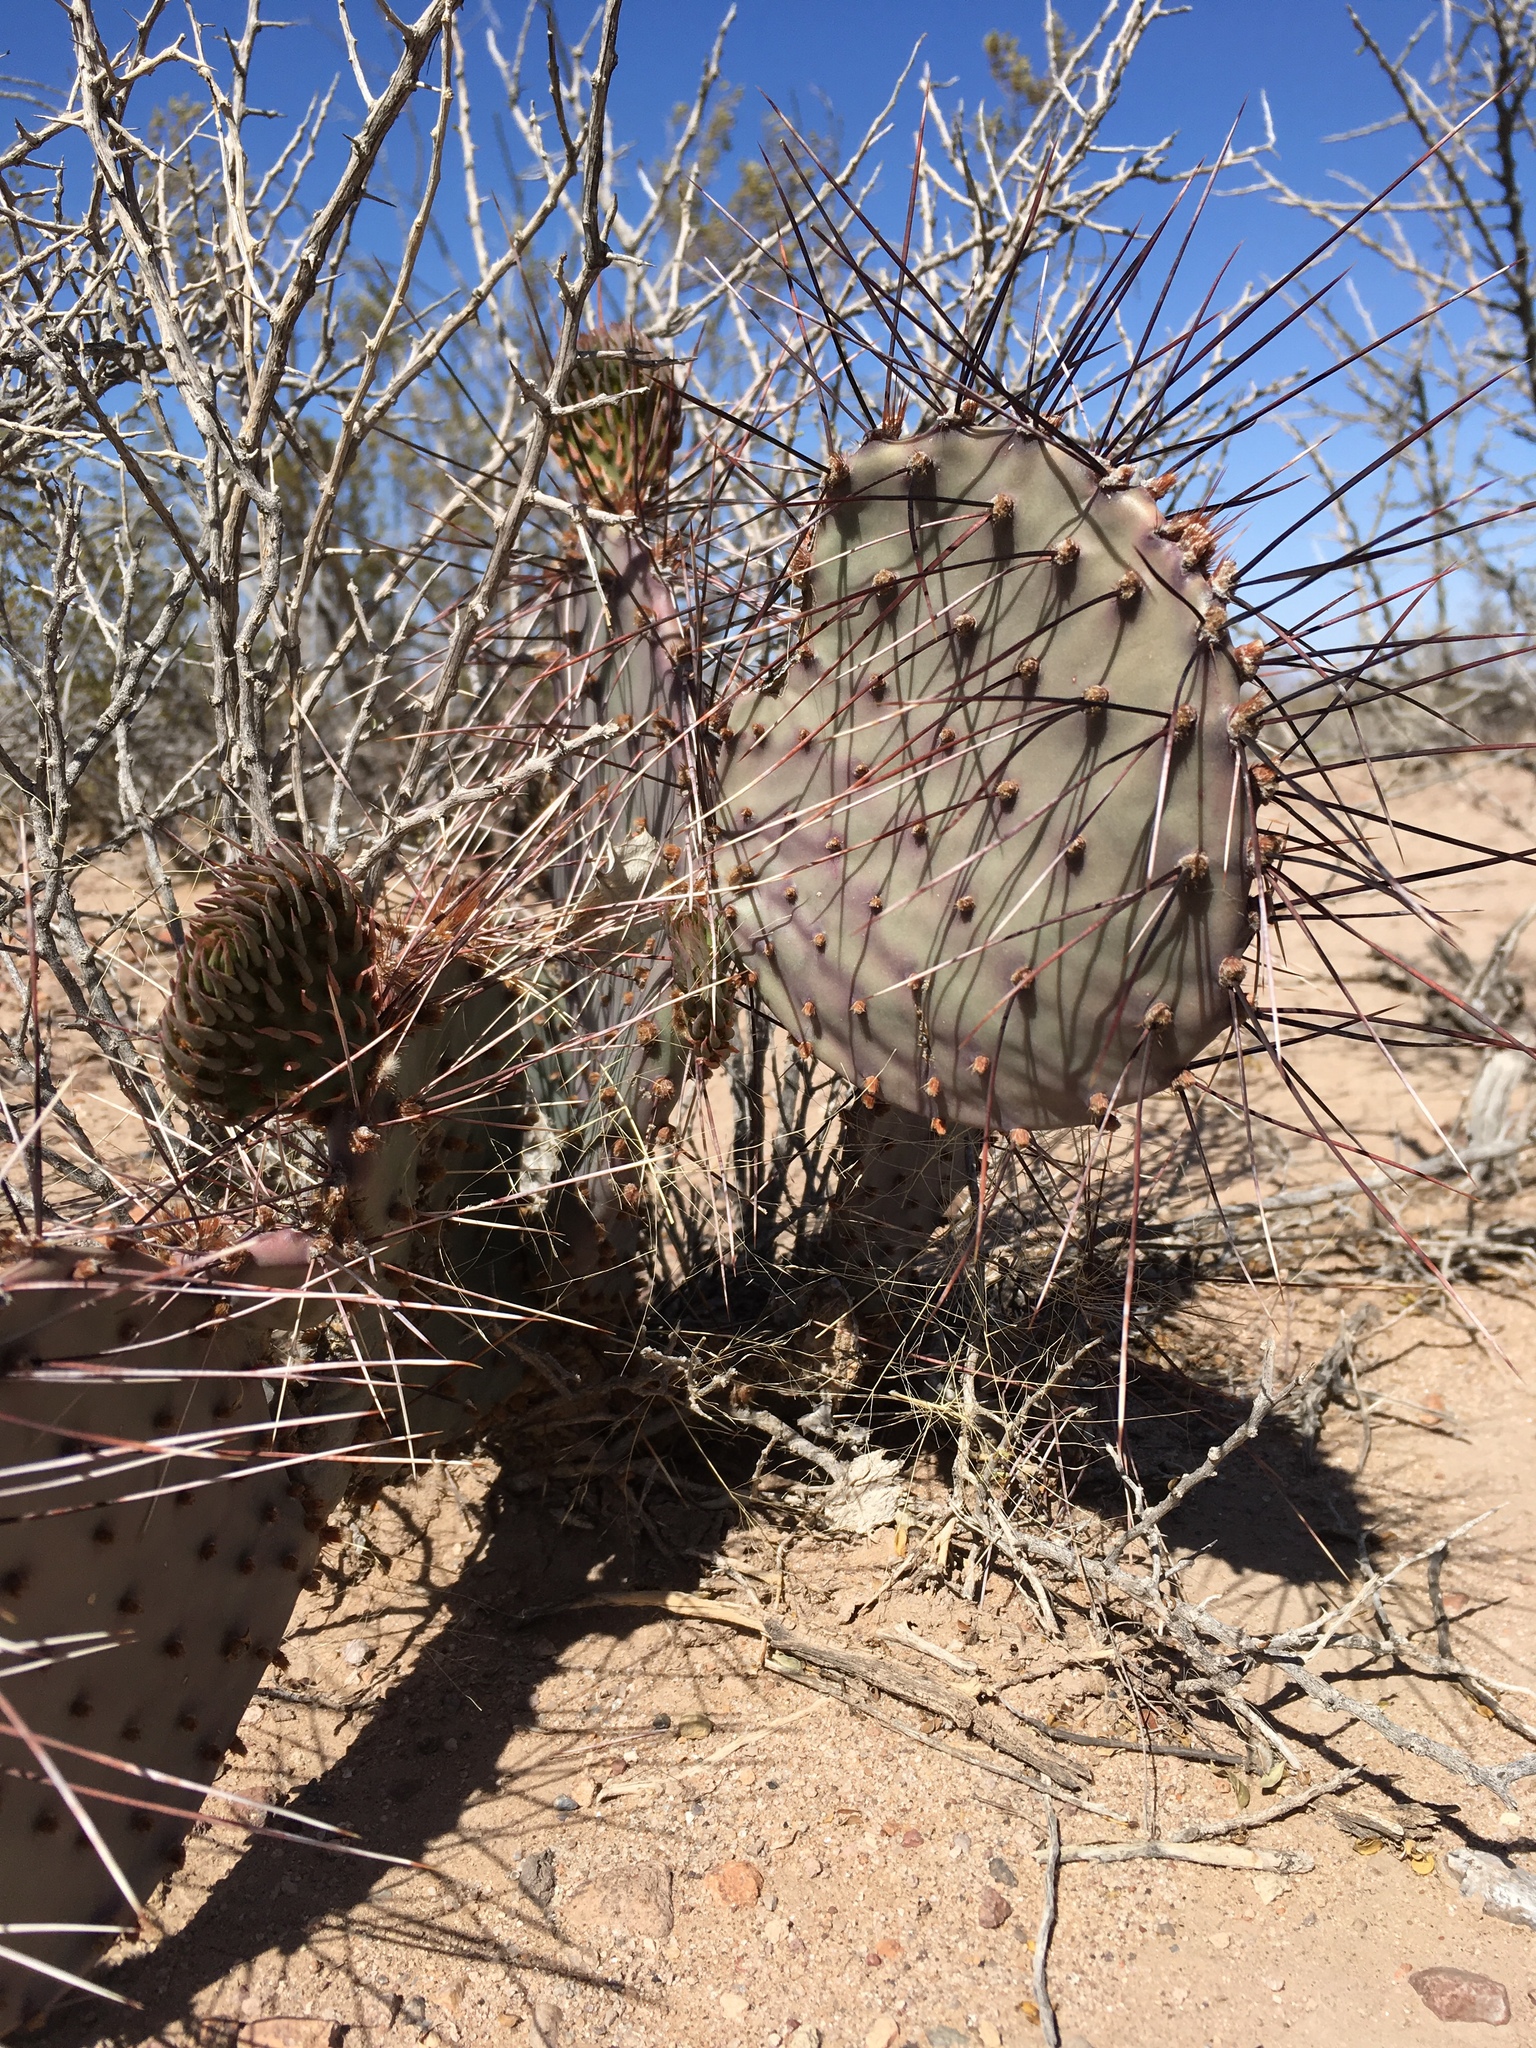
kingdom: Plantae
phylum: Tracheophyta
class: Magnoliopsida
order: Caryophyllales
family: Cactaceae
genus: Opuntia
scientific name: Opuntia macrocentra
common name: Purple prickly-pear
